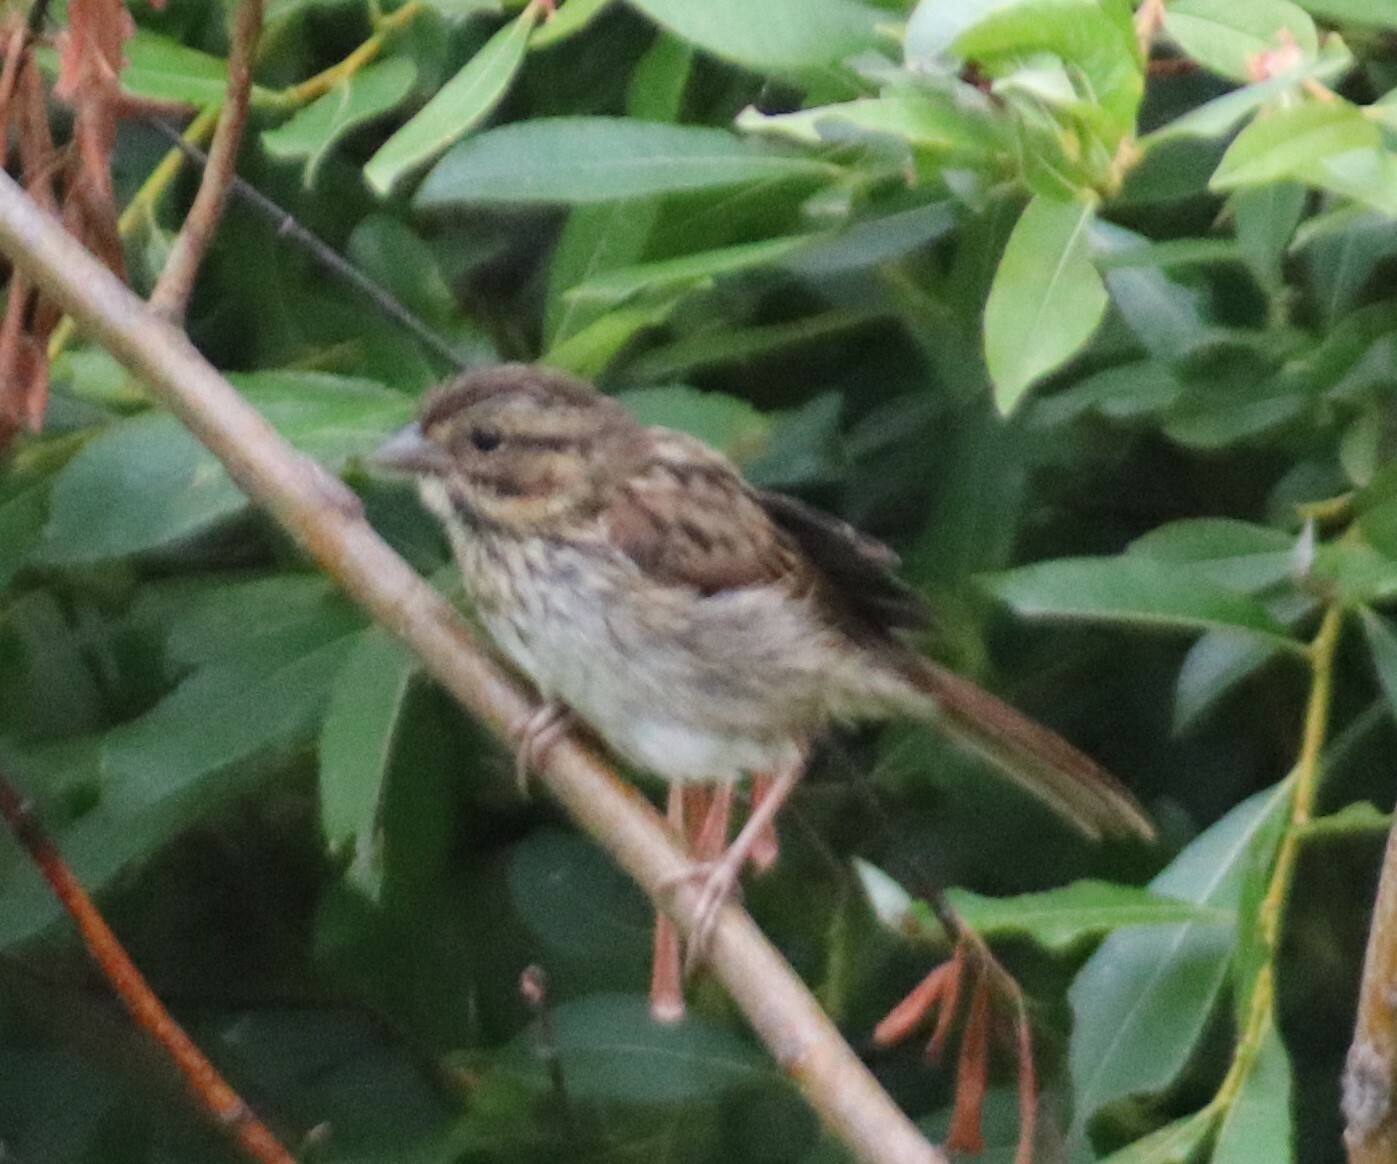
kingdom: Animalia
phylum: Chordata
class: Aves
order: Passeriformes
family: Passerellidae
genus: Melospiza
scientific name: Melospiza melodia
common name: Song sparrow
